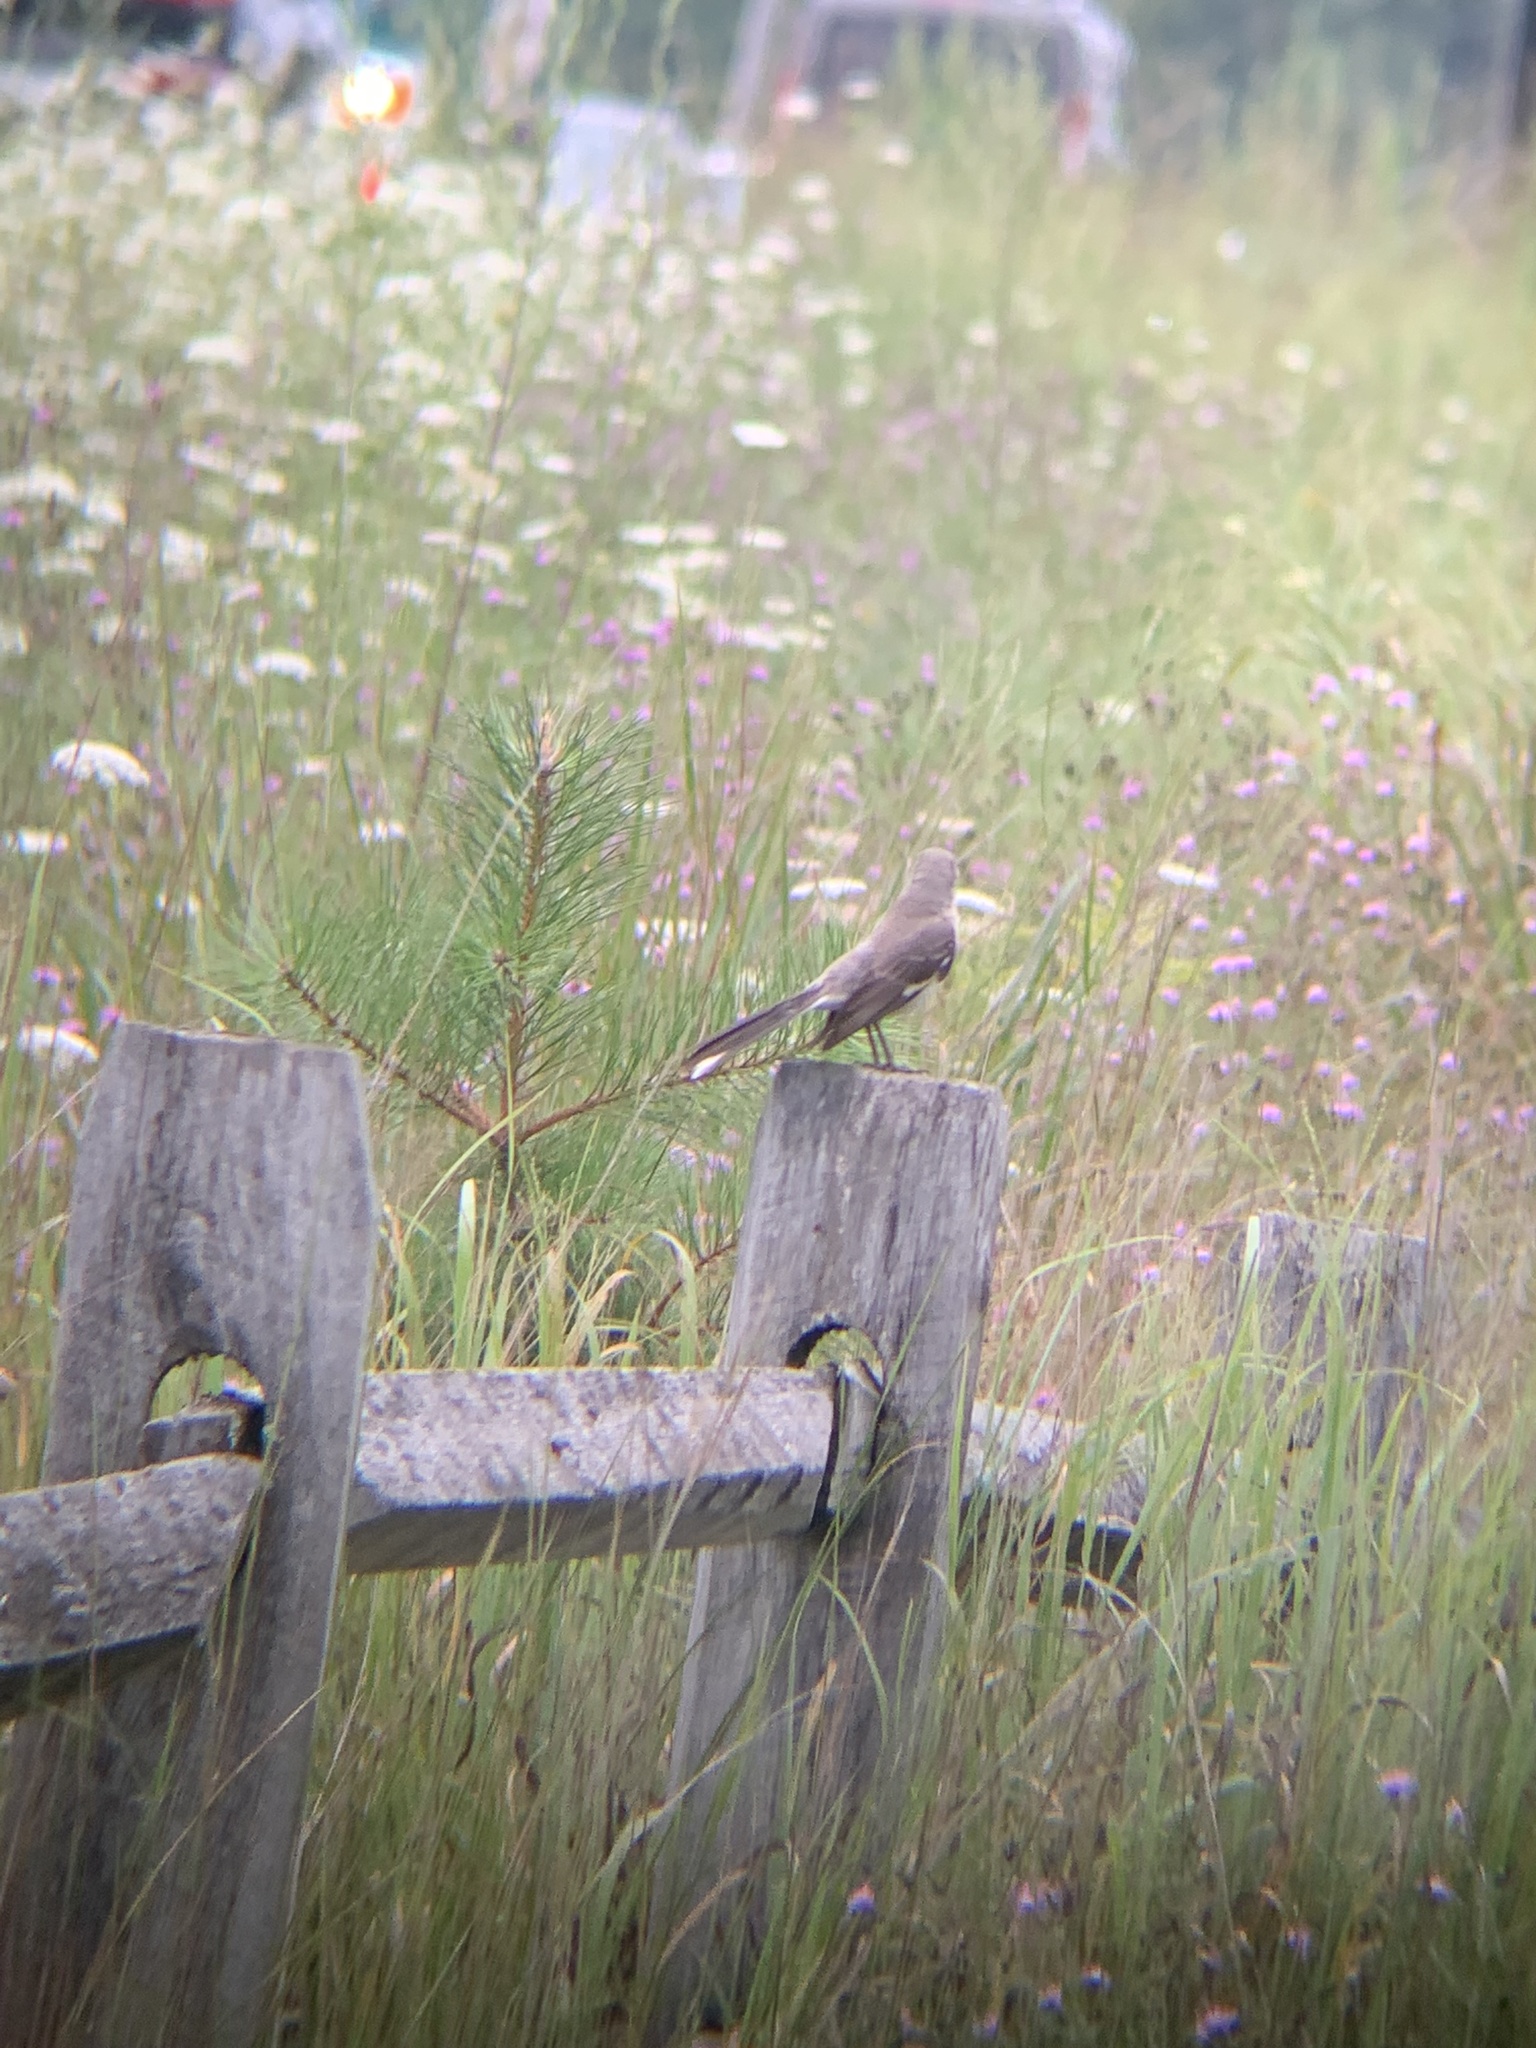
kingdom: Animalia
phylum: Chordata
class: Aves
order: Passeriformes
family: Mimidae
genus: Mimus
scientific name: Mimus polyglottos
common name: Northern mockingbird
